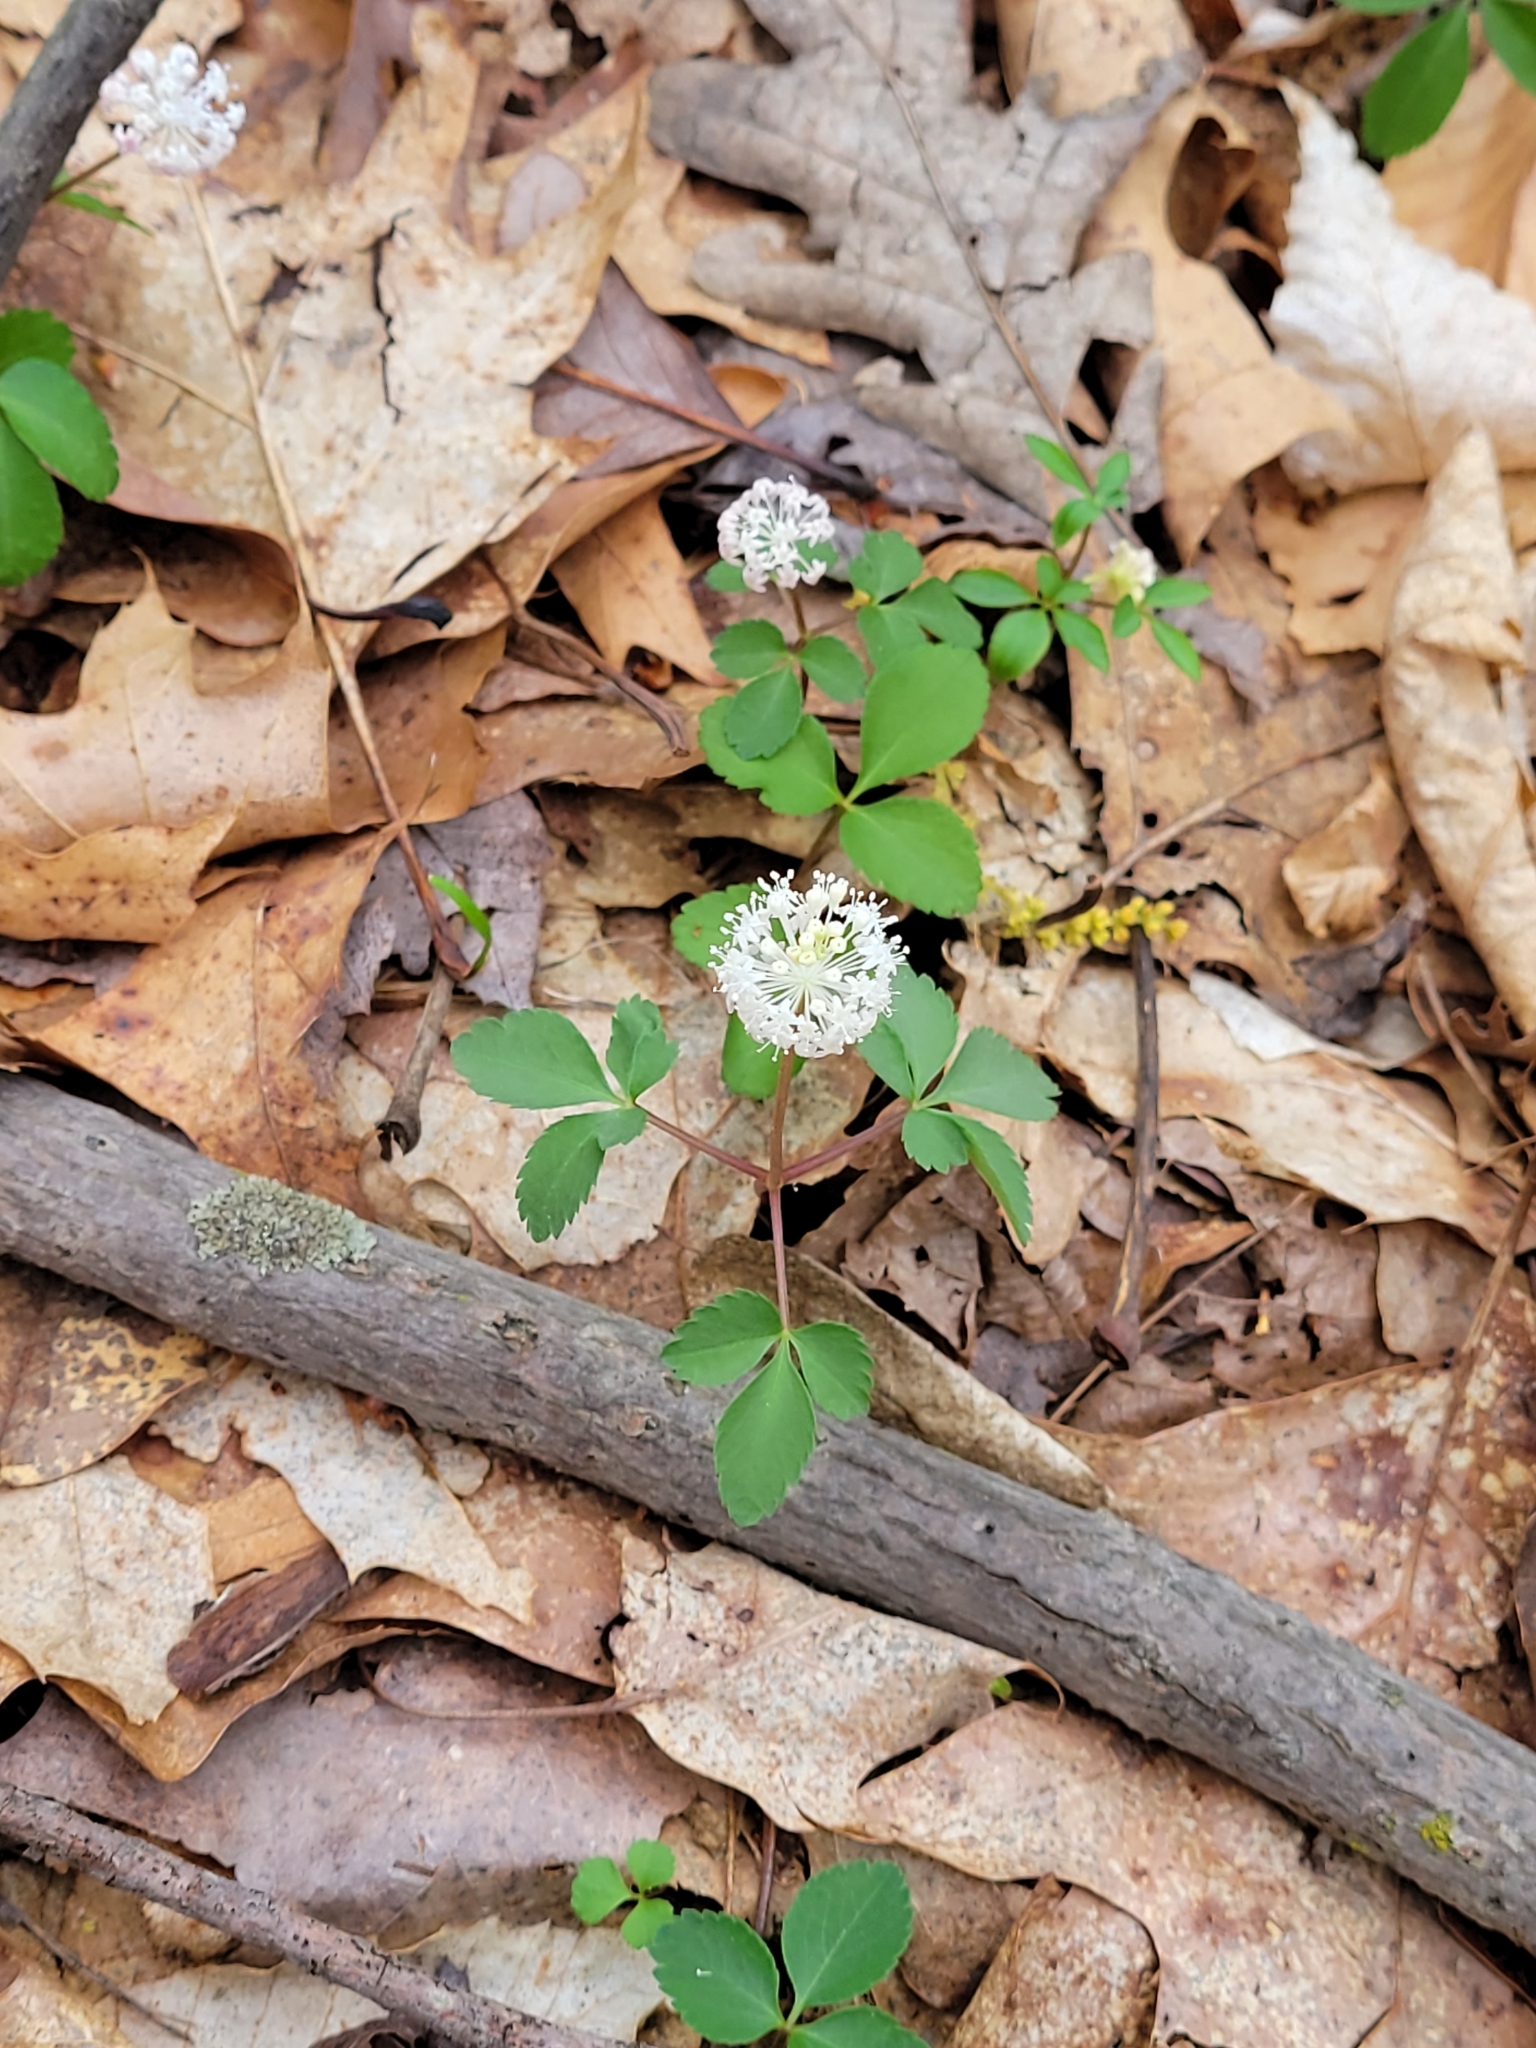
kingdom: Plantae
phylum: Tracheophyta
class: Magnoliopsida
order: Apiales
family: Araliaceae
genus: Panax
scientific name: Panax trifolius
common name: Dwarf ginseng
